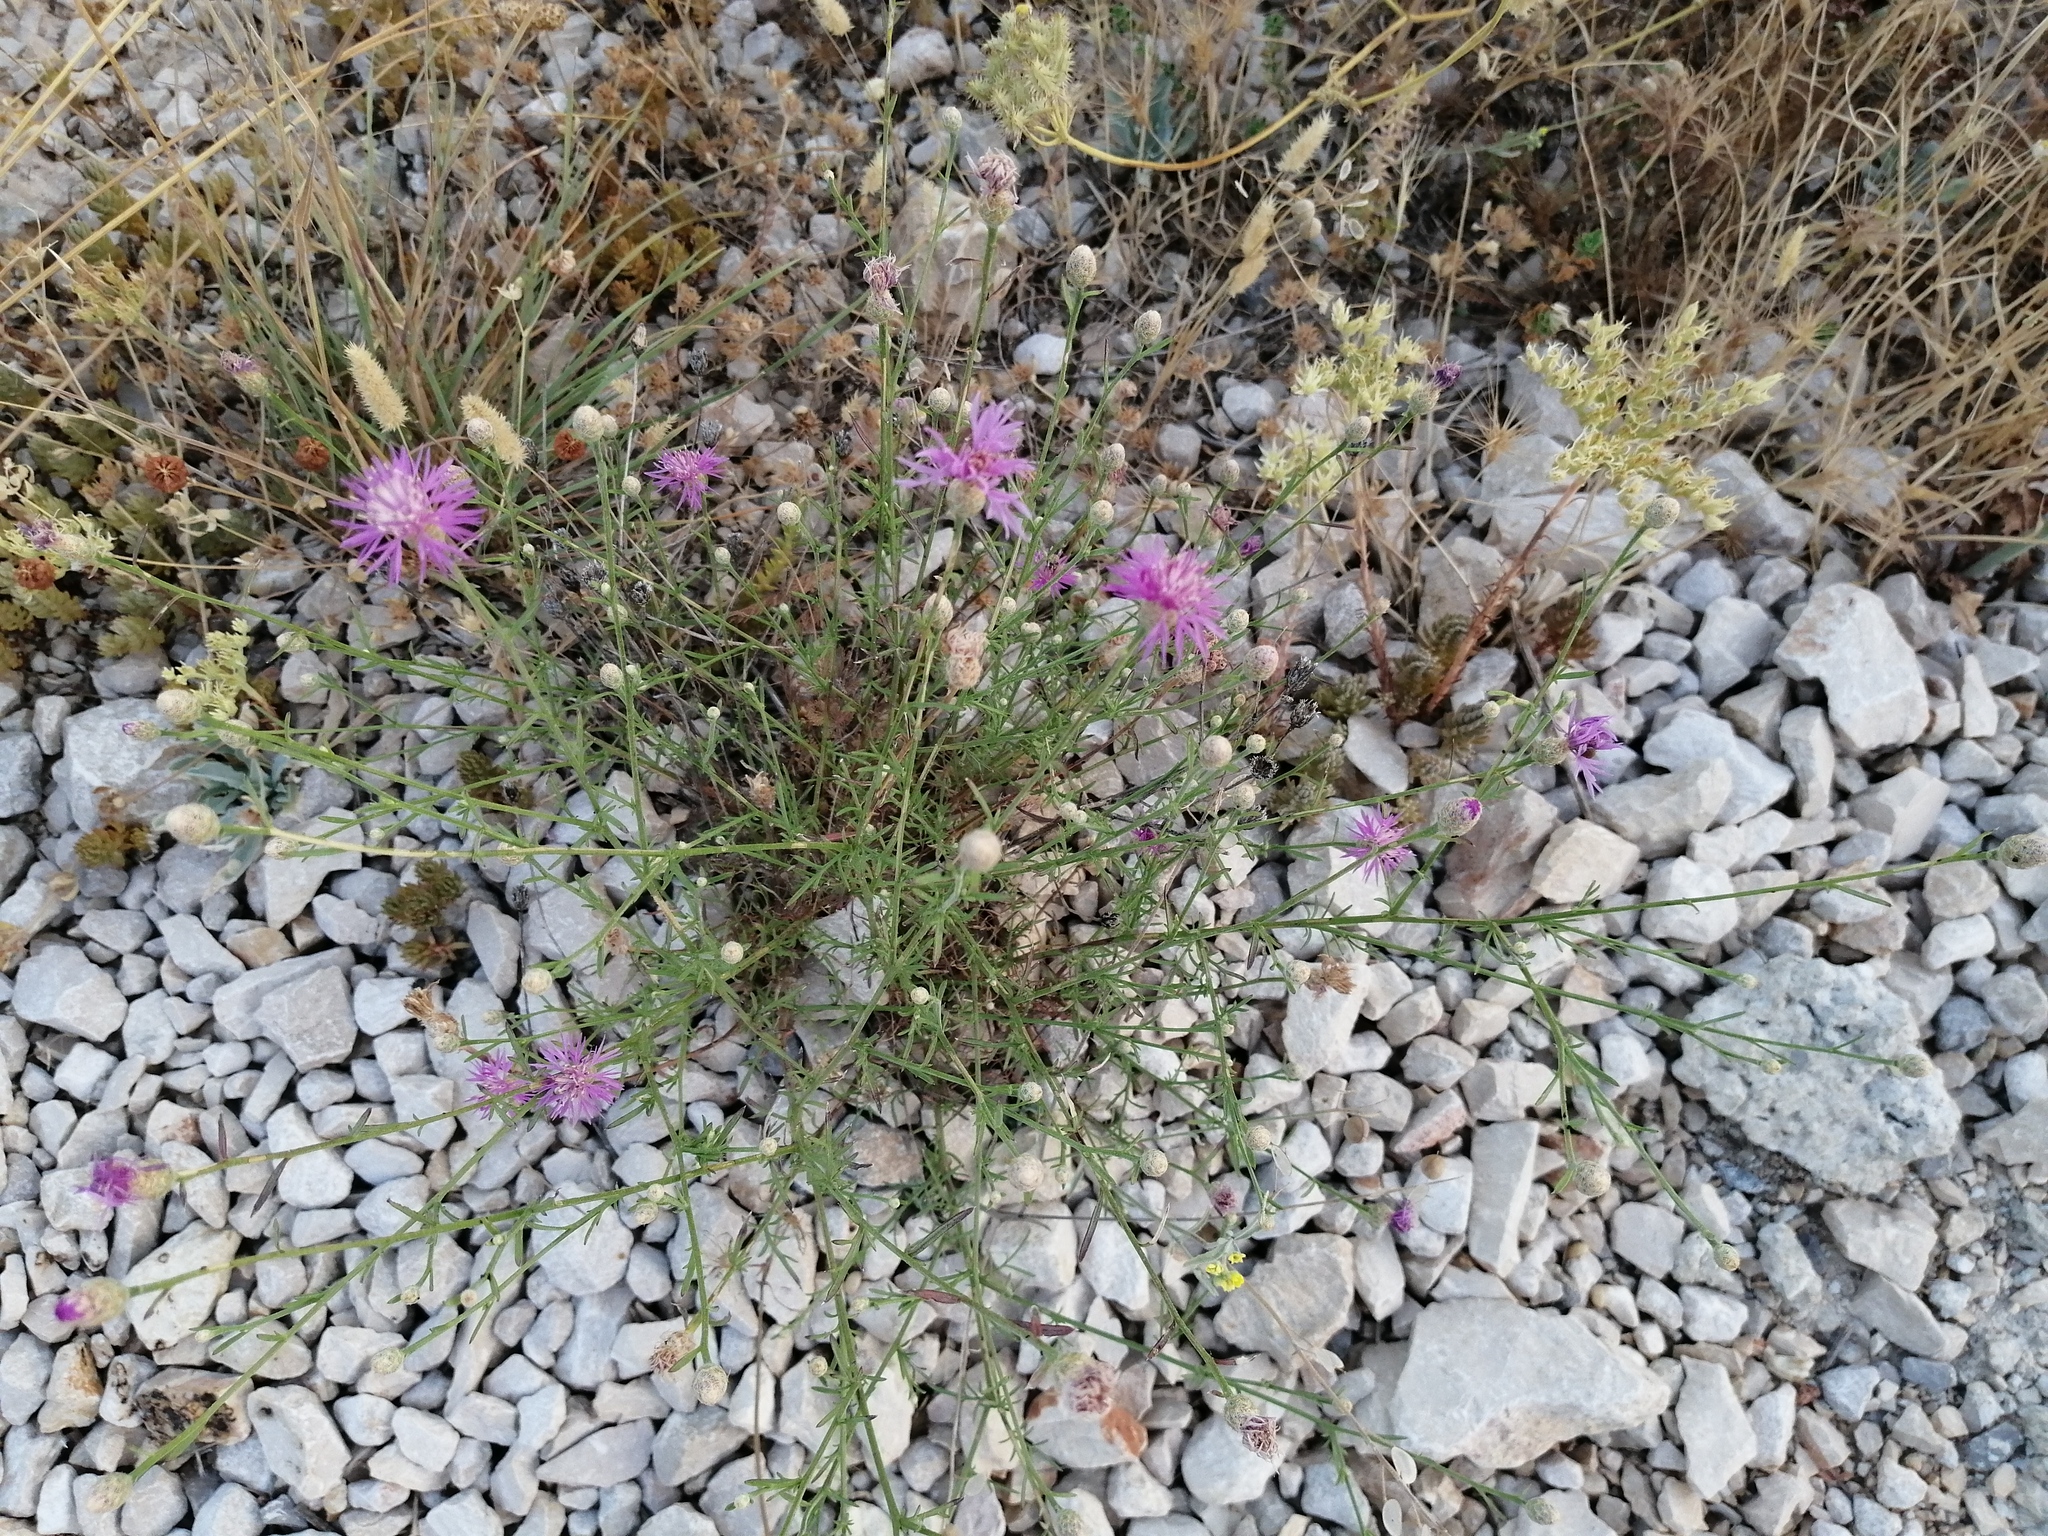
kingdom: Plantae
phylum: Tracheophyta
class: Magnoliopsida
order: Asterales
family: Asteraceae
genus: Centaurea
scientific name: Centaurea deusta
